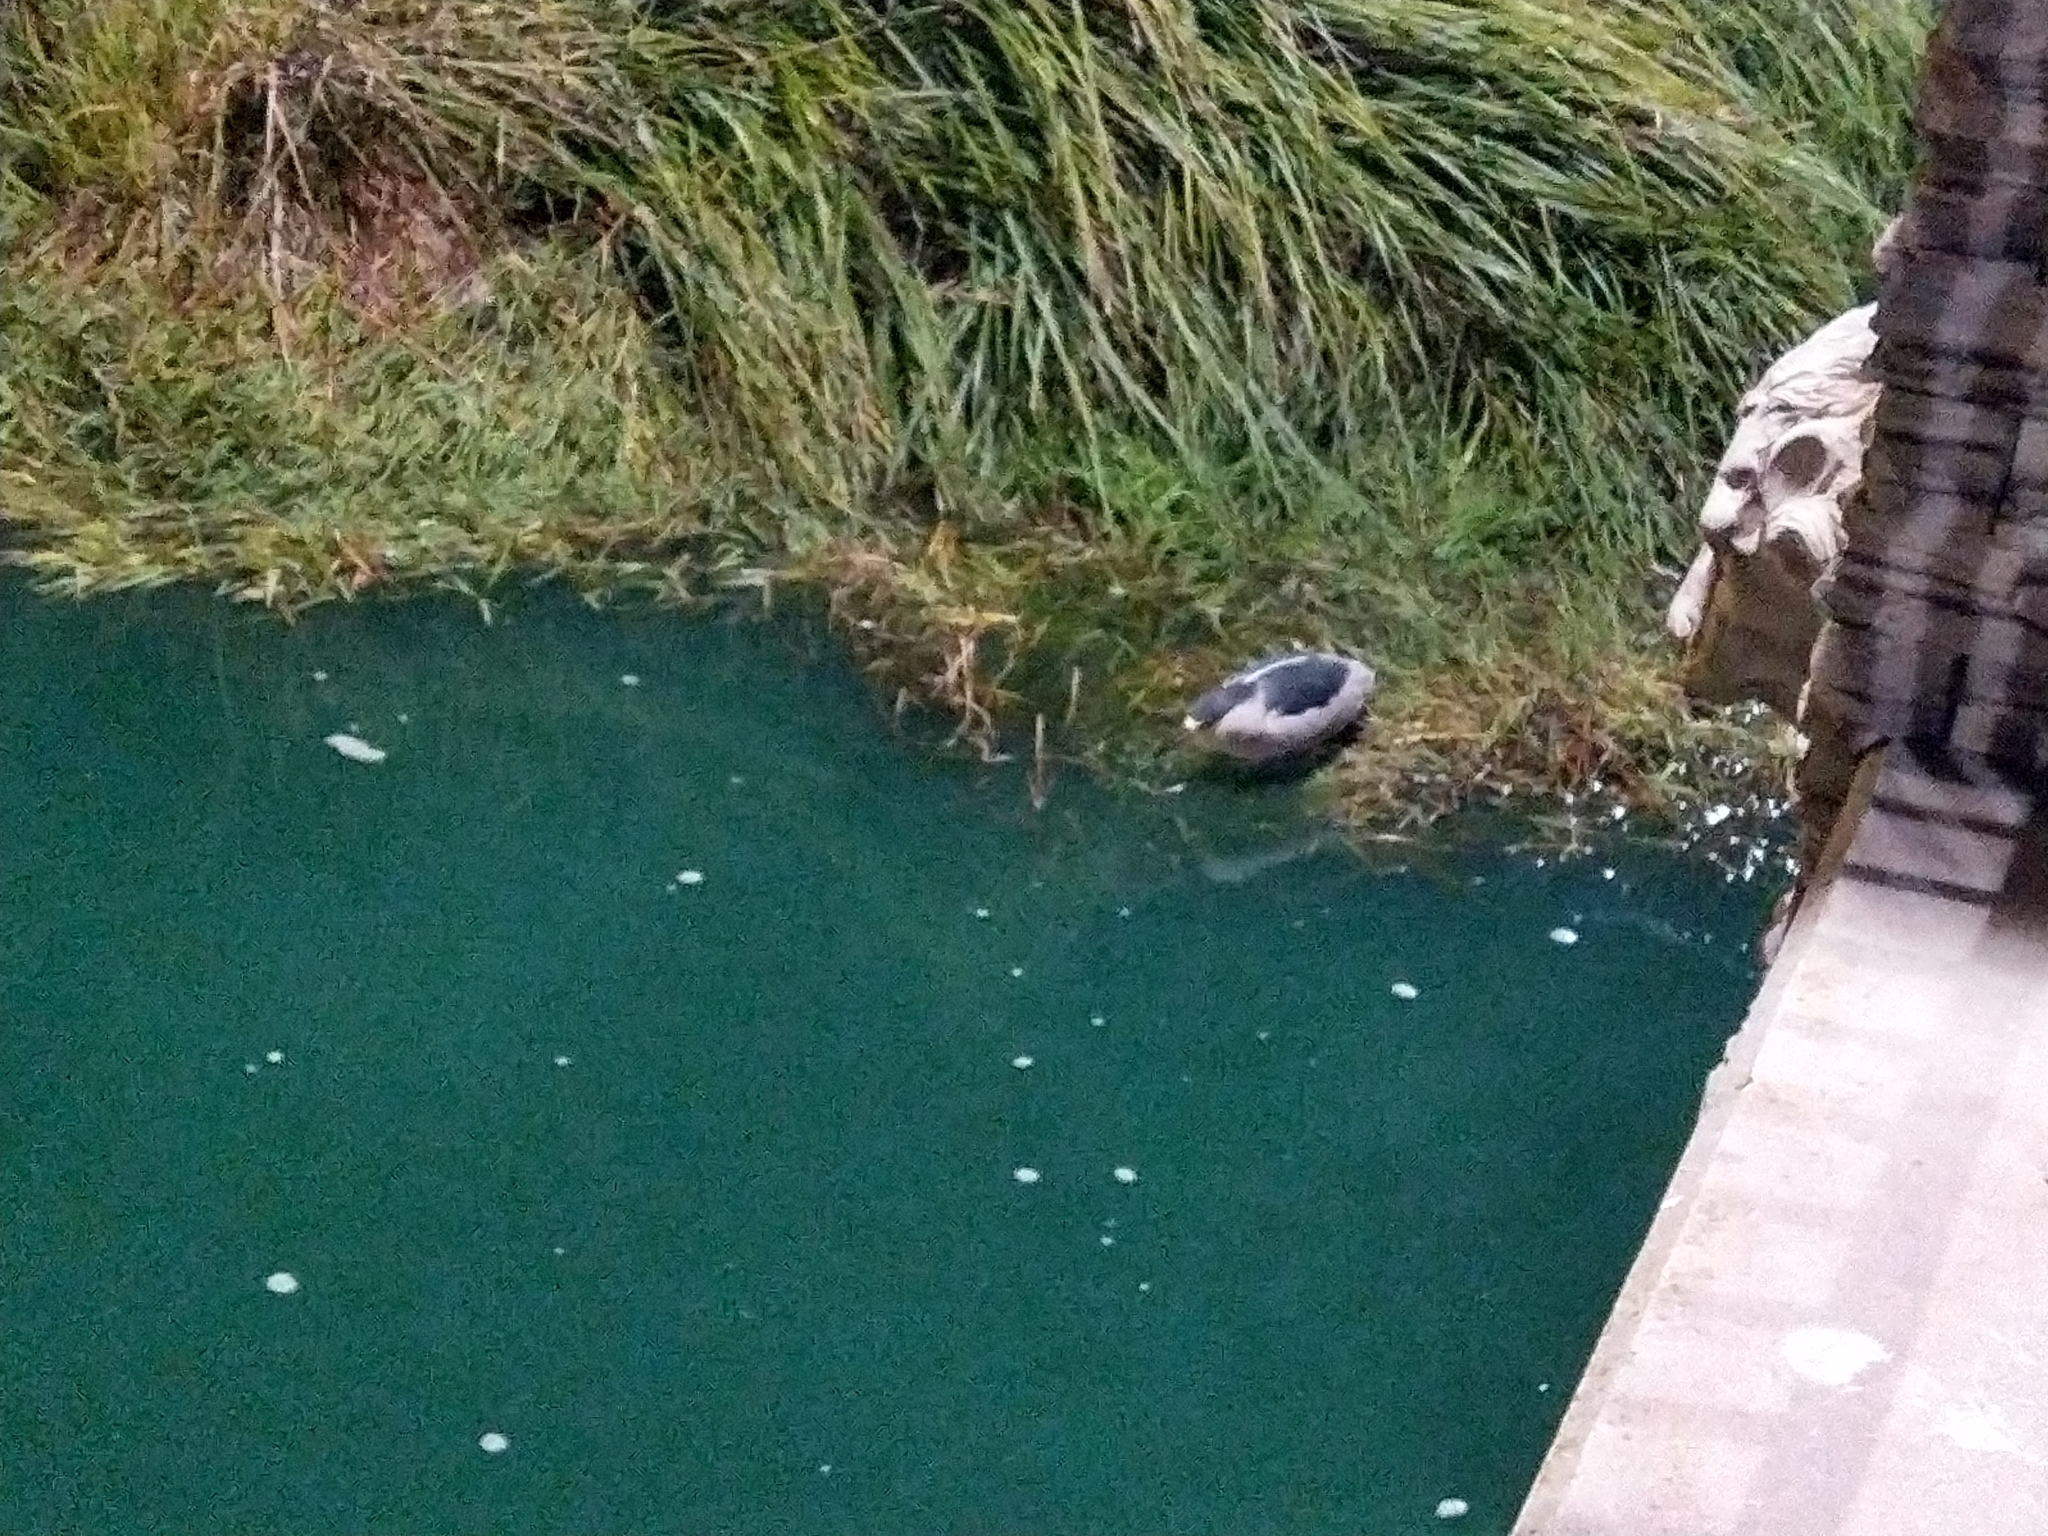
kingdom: Animalia
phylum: Chordata
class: Aves
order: Pelecaniformes
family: Ardeidae
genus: Nycticorax
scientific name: Nycticorax nycticorax
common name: Black-crowned night heron
